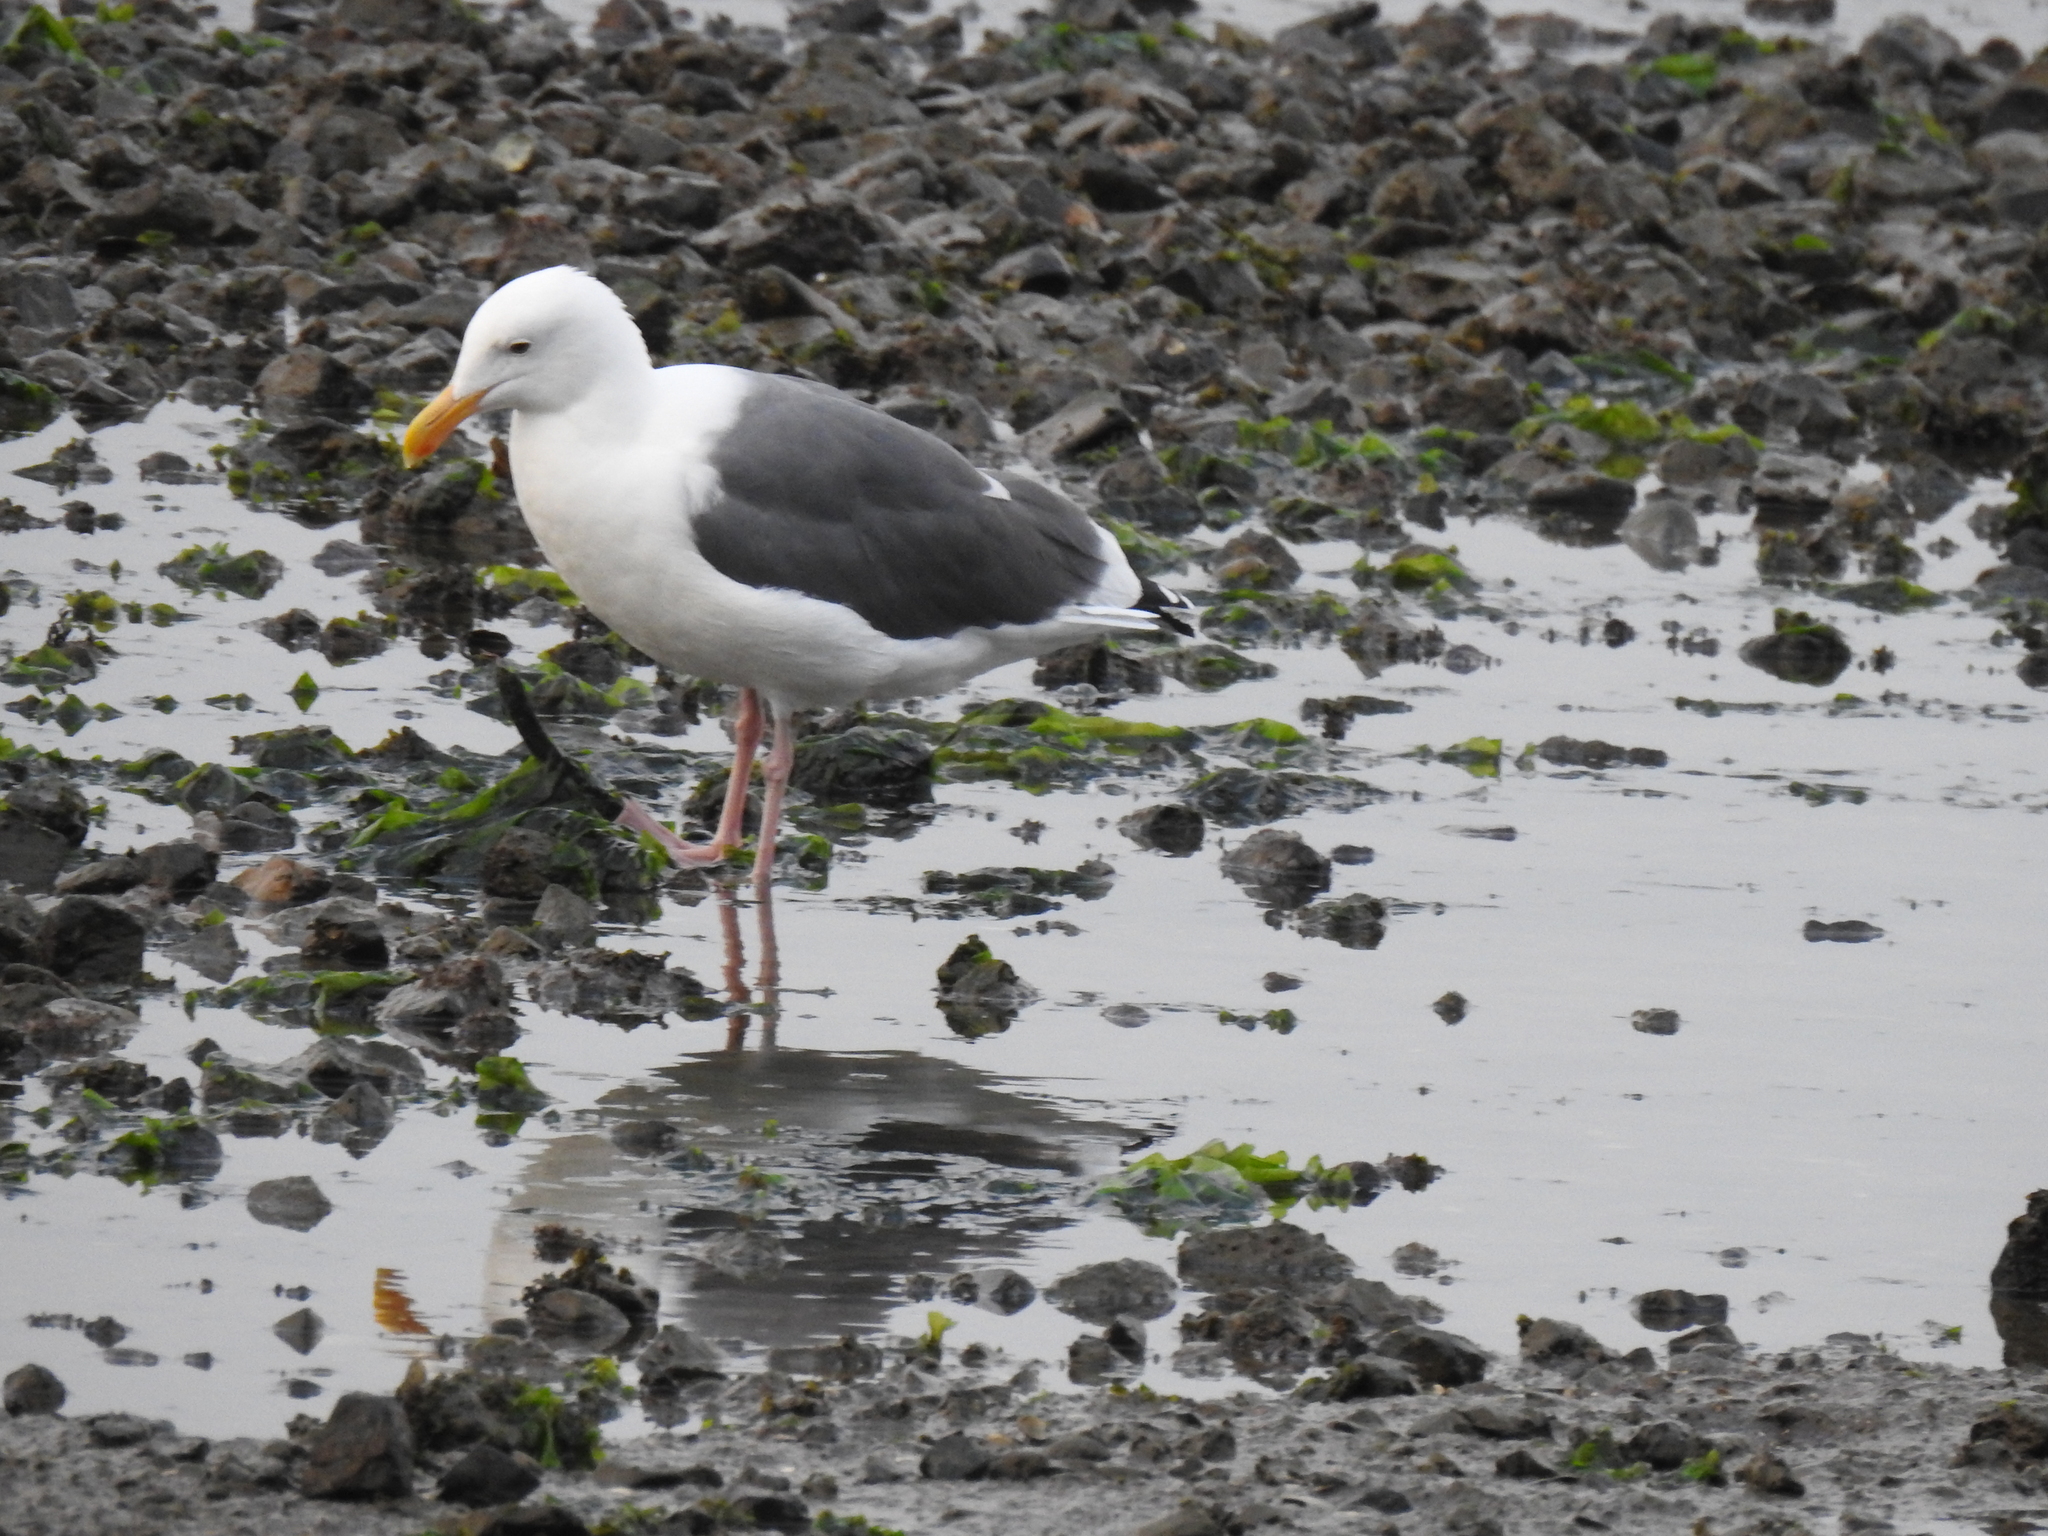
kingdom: Animalia
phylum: Chordata
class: Aves
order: Charadriiformes
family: Laridae
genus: Larus
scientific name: Larus occidentalis
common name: Western gull
